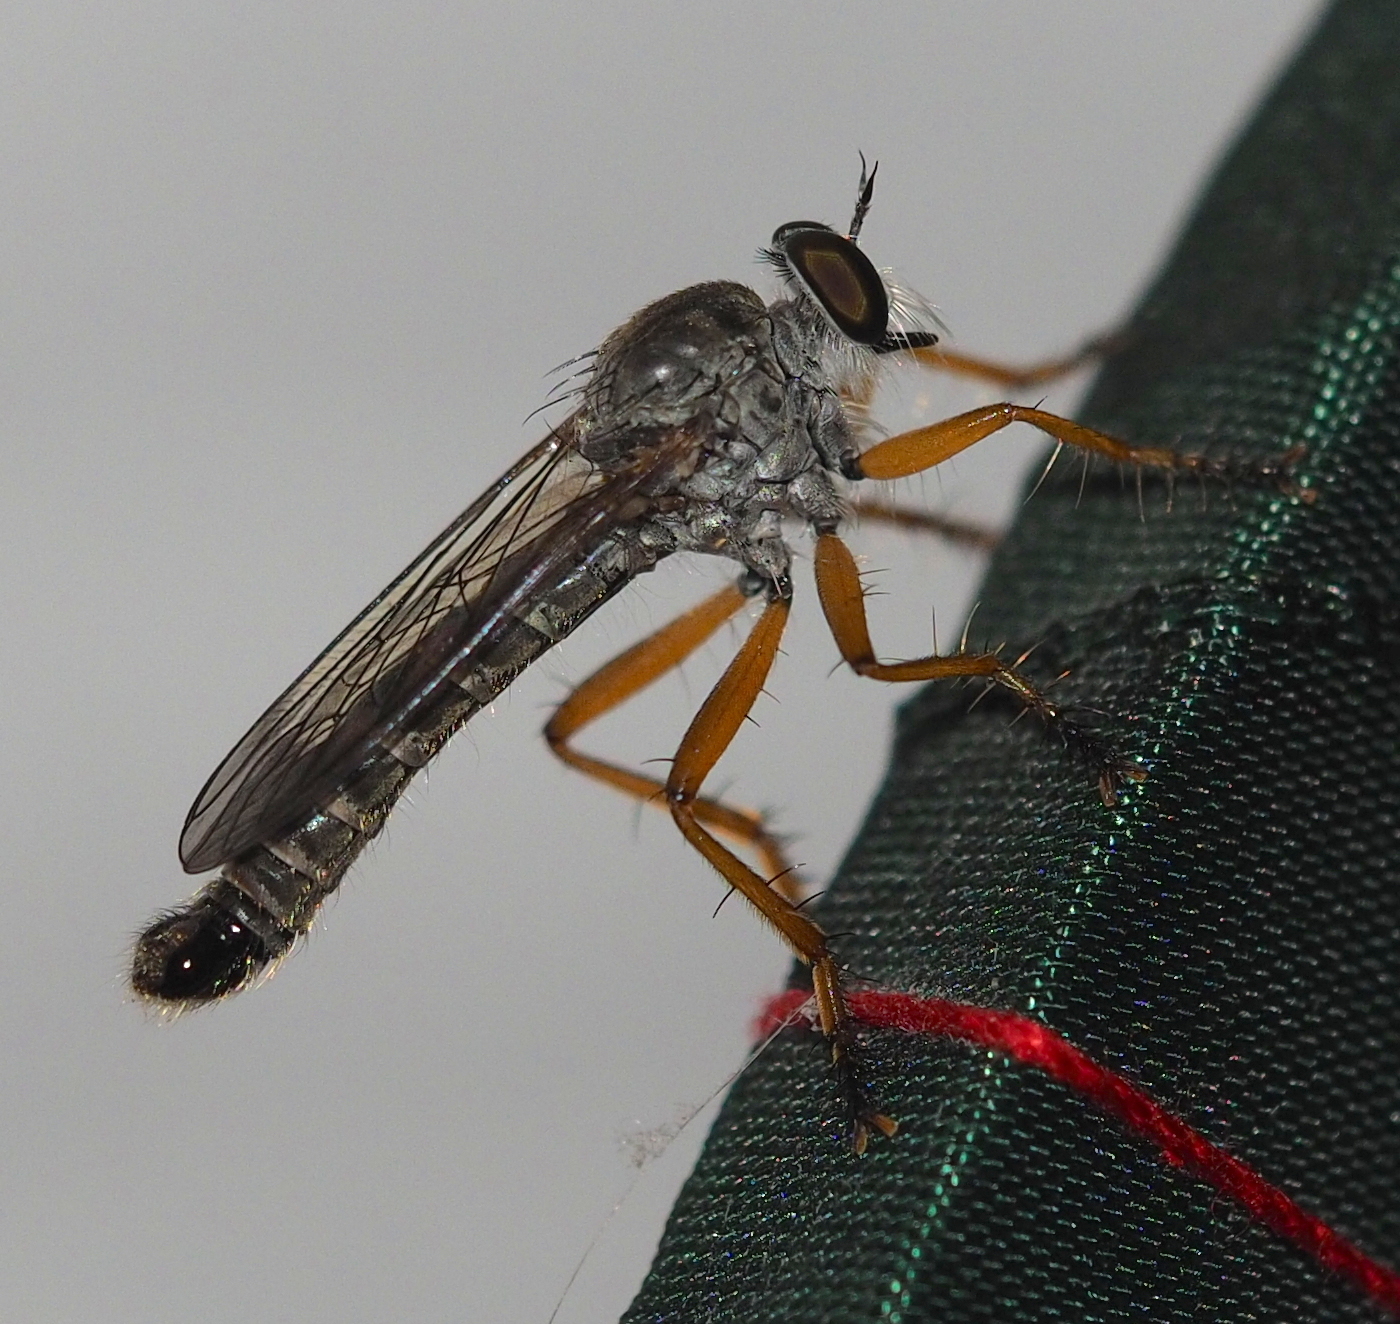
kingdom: Animalia
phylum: Arthropoda
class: Insecta
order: Diptera
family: Asilidae
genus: Neomochtherus
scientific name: Neomochtherus schineri
